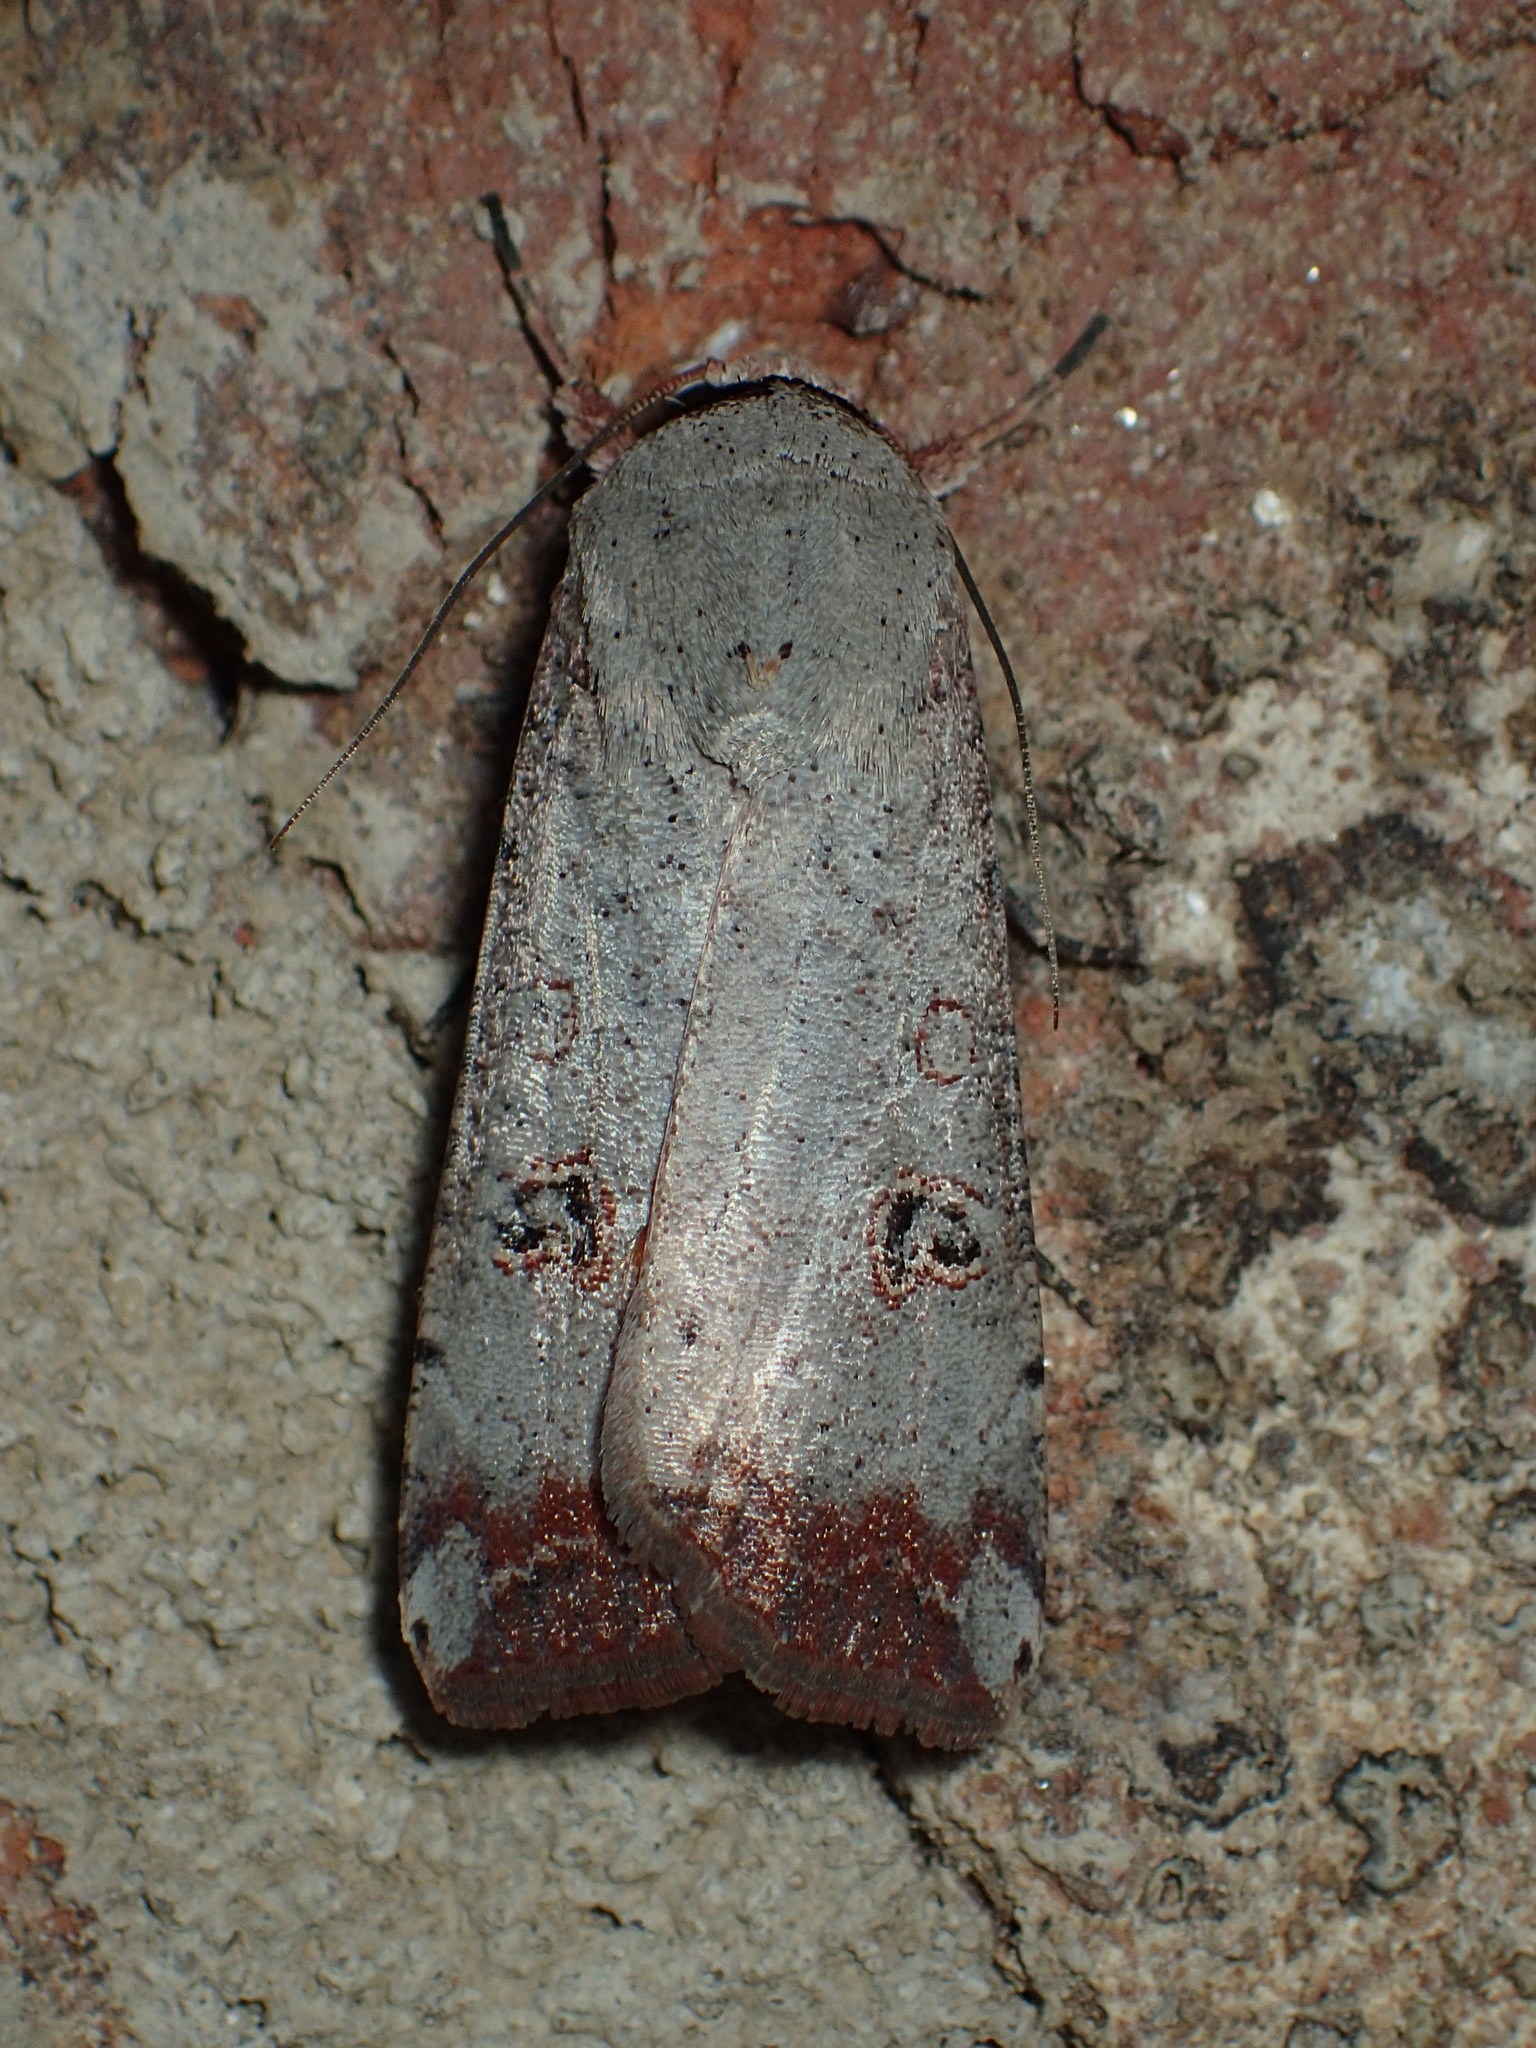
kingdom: Animalia
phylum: Arthropoda
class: Insecta
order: Lepidoptera
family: Noctuidae
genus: Anicla
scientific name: Anicla infecta
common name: Green cutworm
